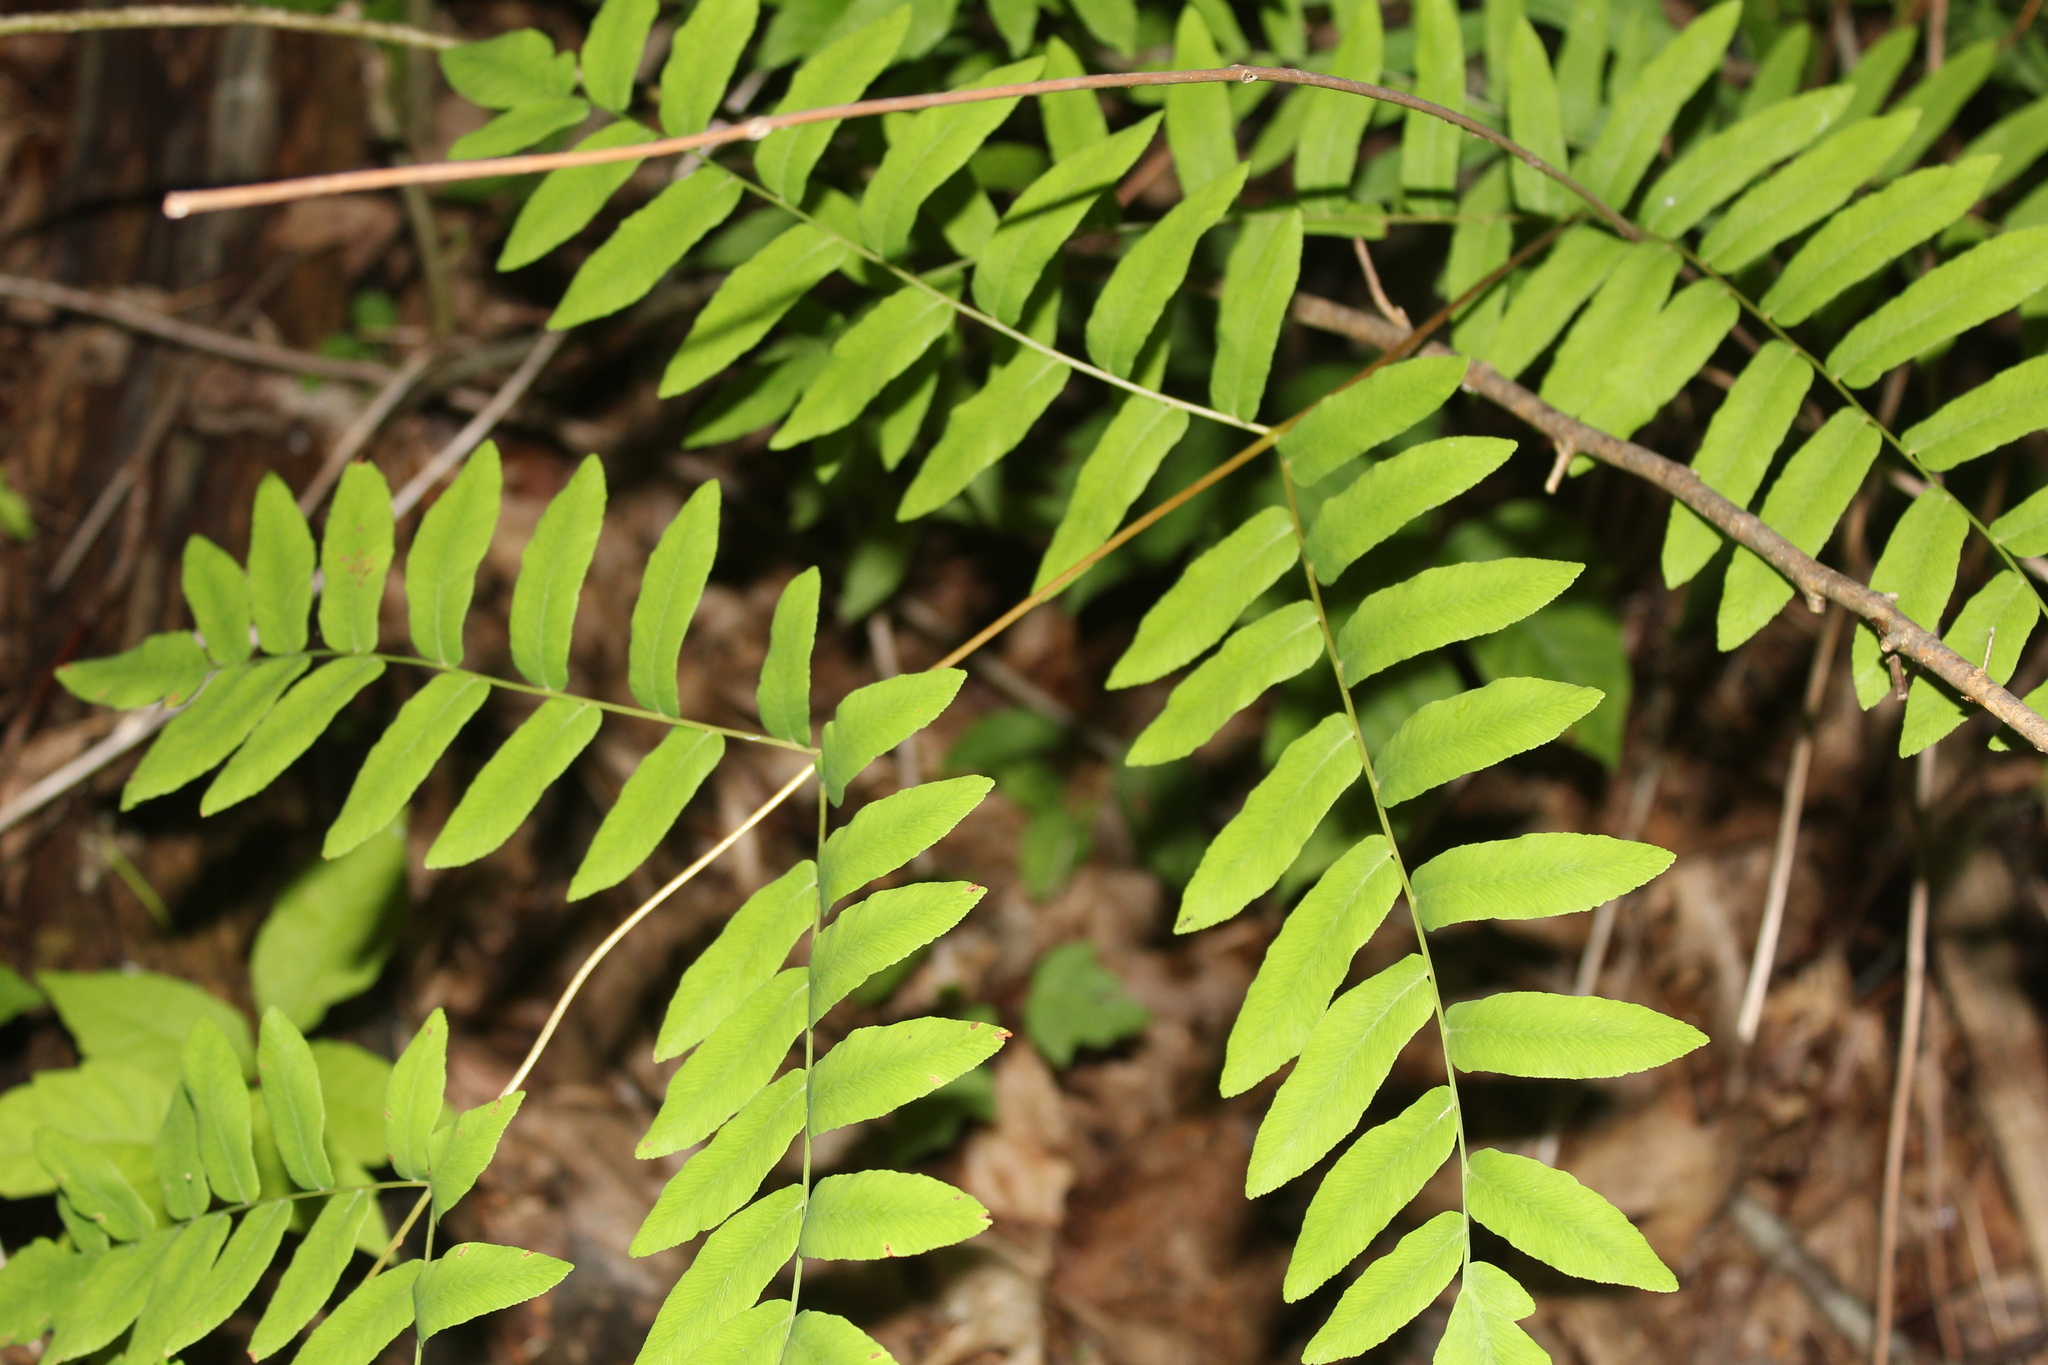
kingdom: Plantae
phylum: Tracheophyta
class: Polypodiopsida
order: Osmundales
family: Osmundaceae
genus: Osmunda
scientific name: Osmunda spectabilis
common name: American royal fern
